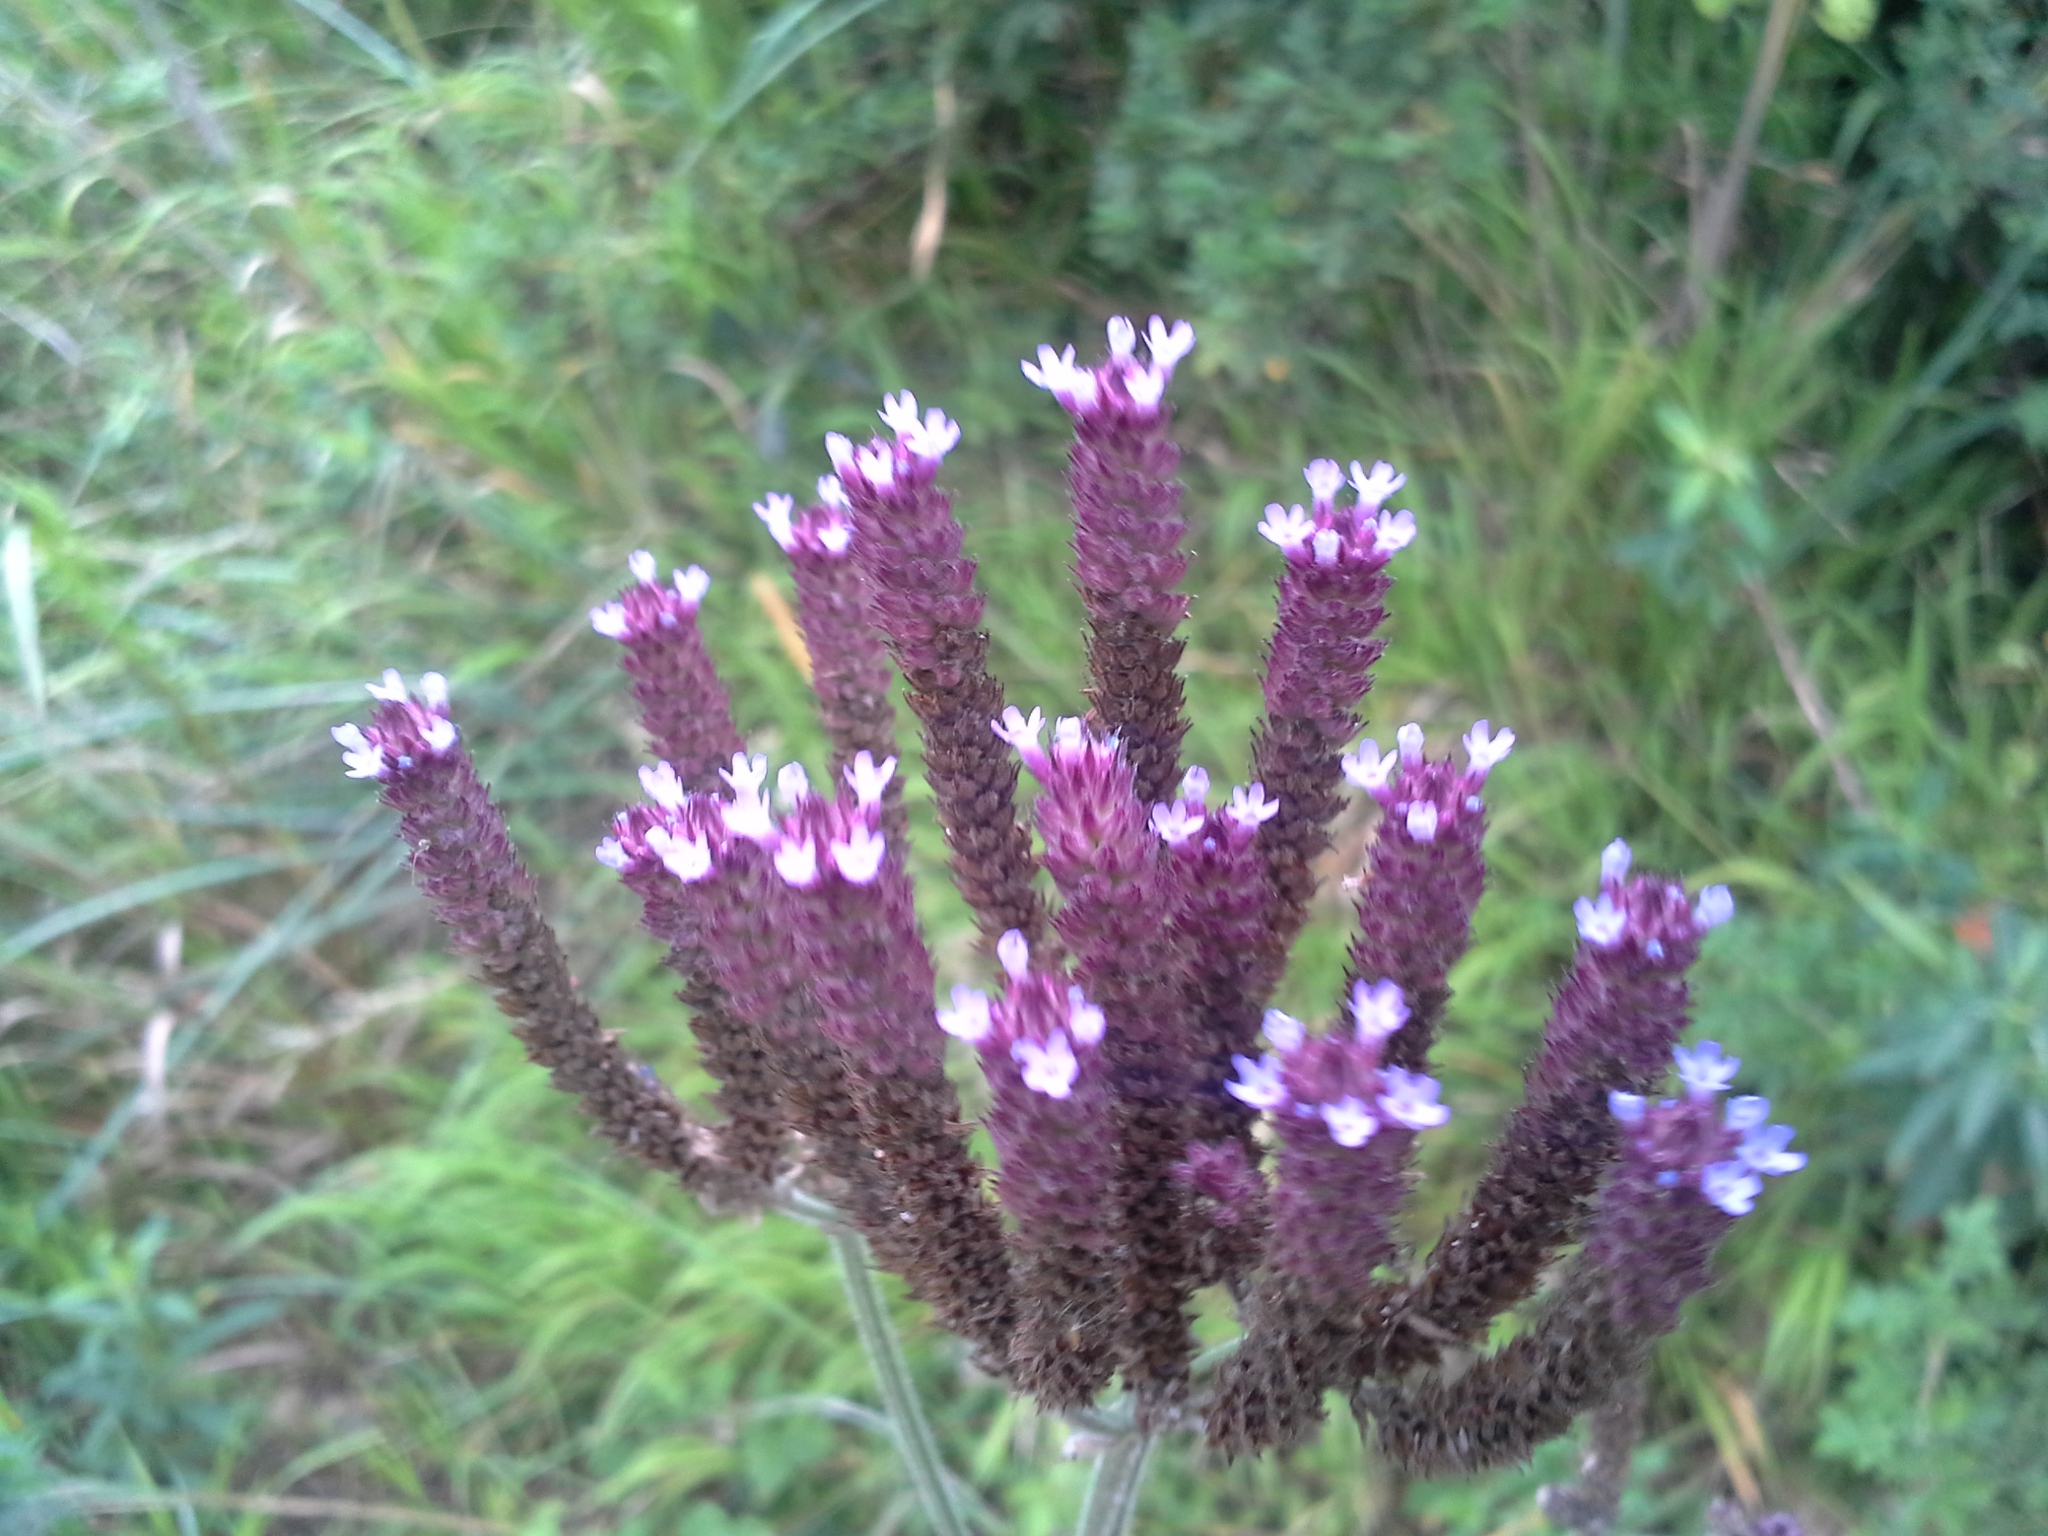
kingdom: Plantae
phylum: Tracheophyta
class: Magnoliopsida
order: Lamiales
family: Verbenaceae
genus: Verbena
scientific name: Verbena bonariensis
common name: Purpletop vervain
